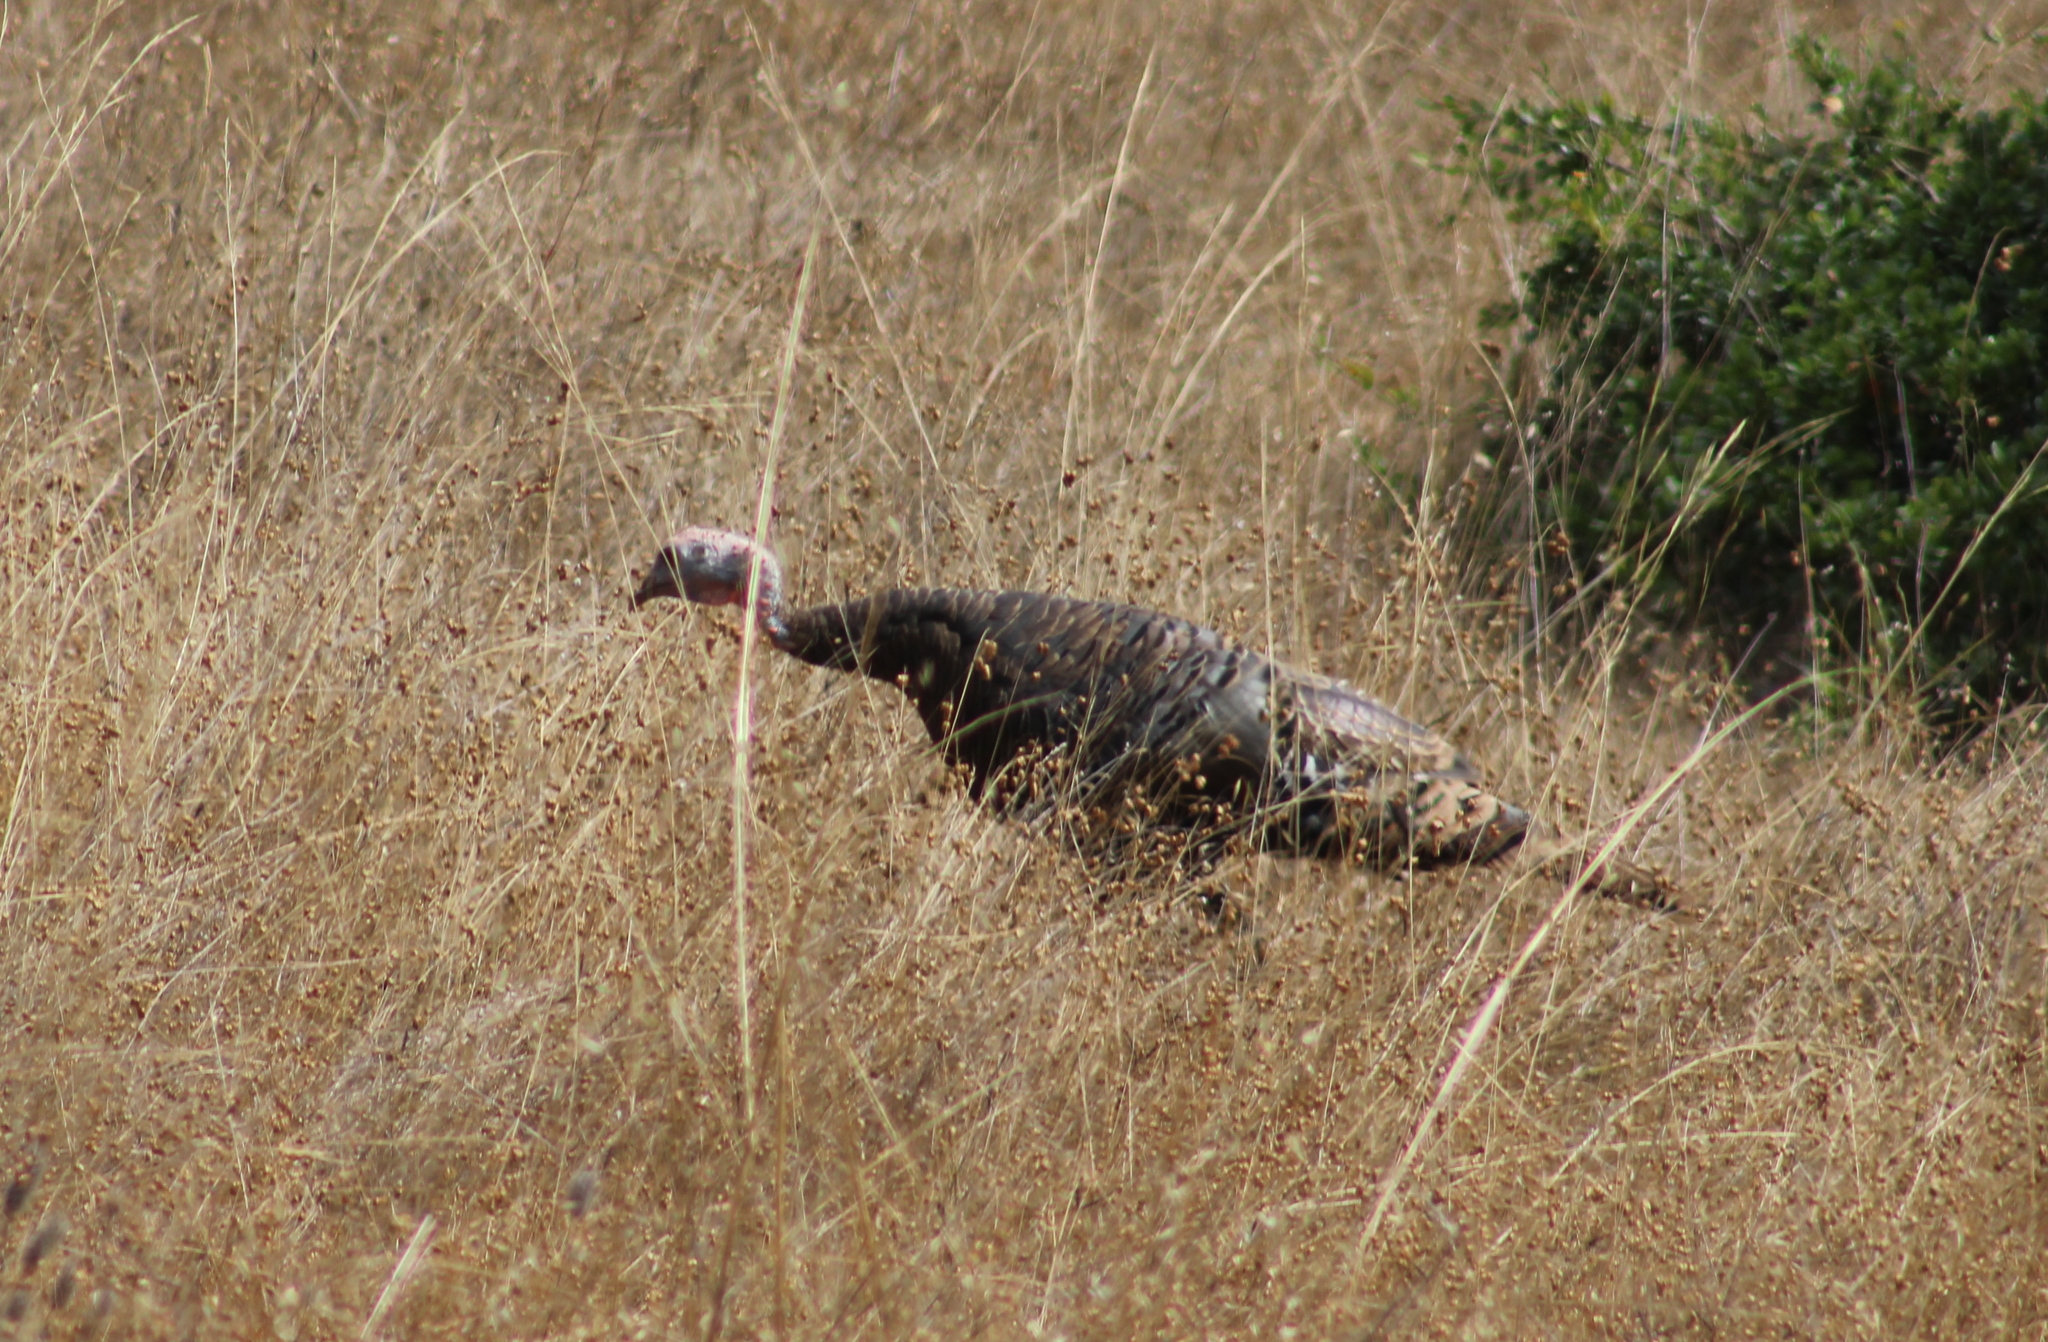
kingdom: Animalia
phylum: Chordata
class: Aves
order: Galliformes
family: Phasianidae
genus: Meleagris
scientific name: Meleagris gallopavo
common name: Wild turkey
